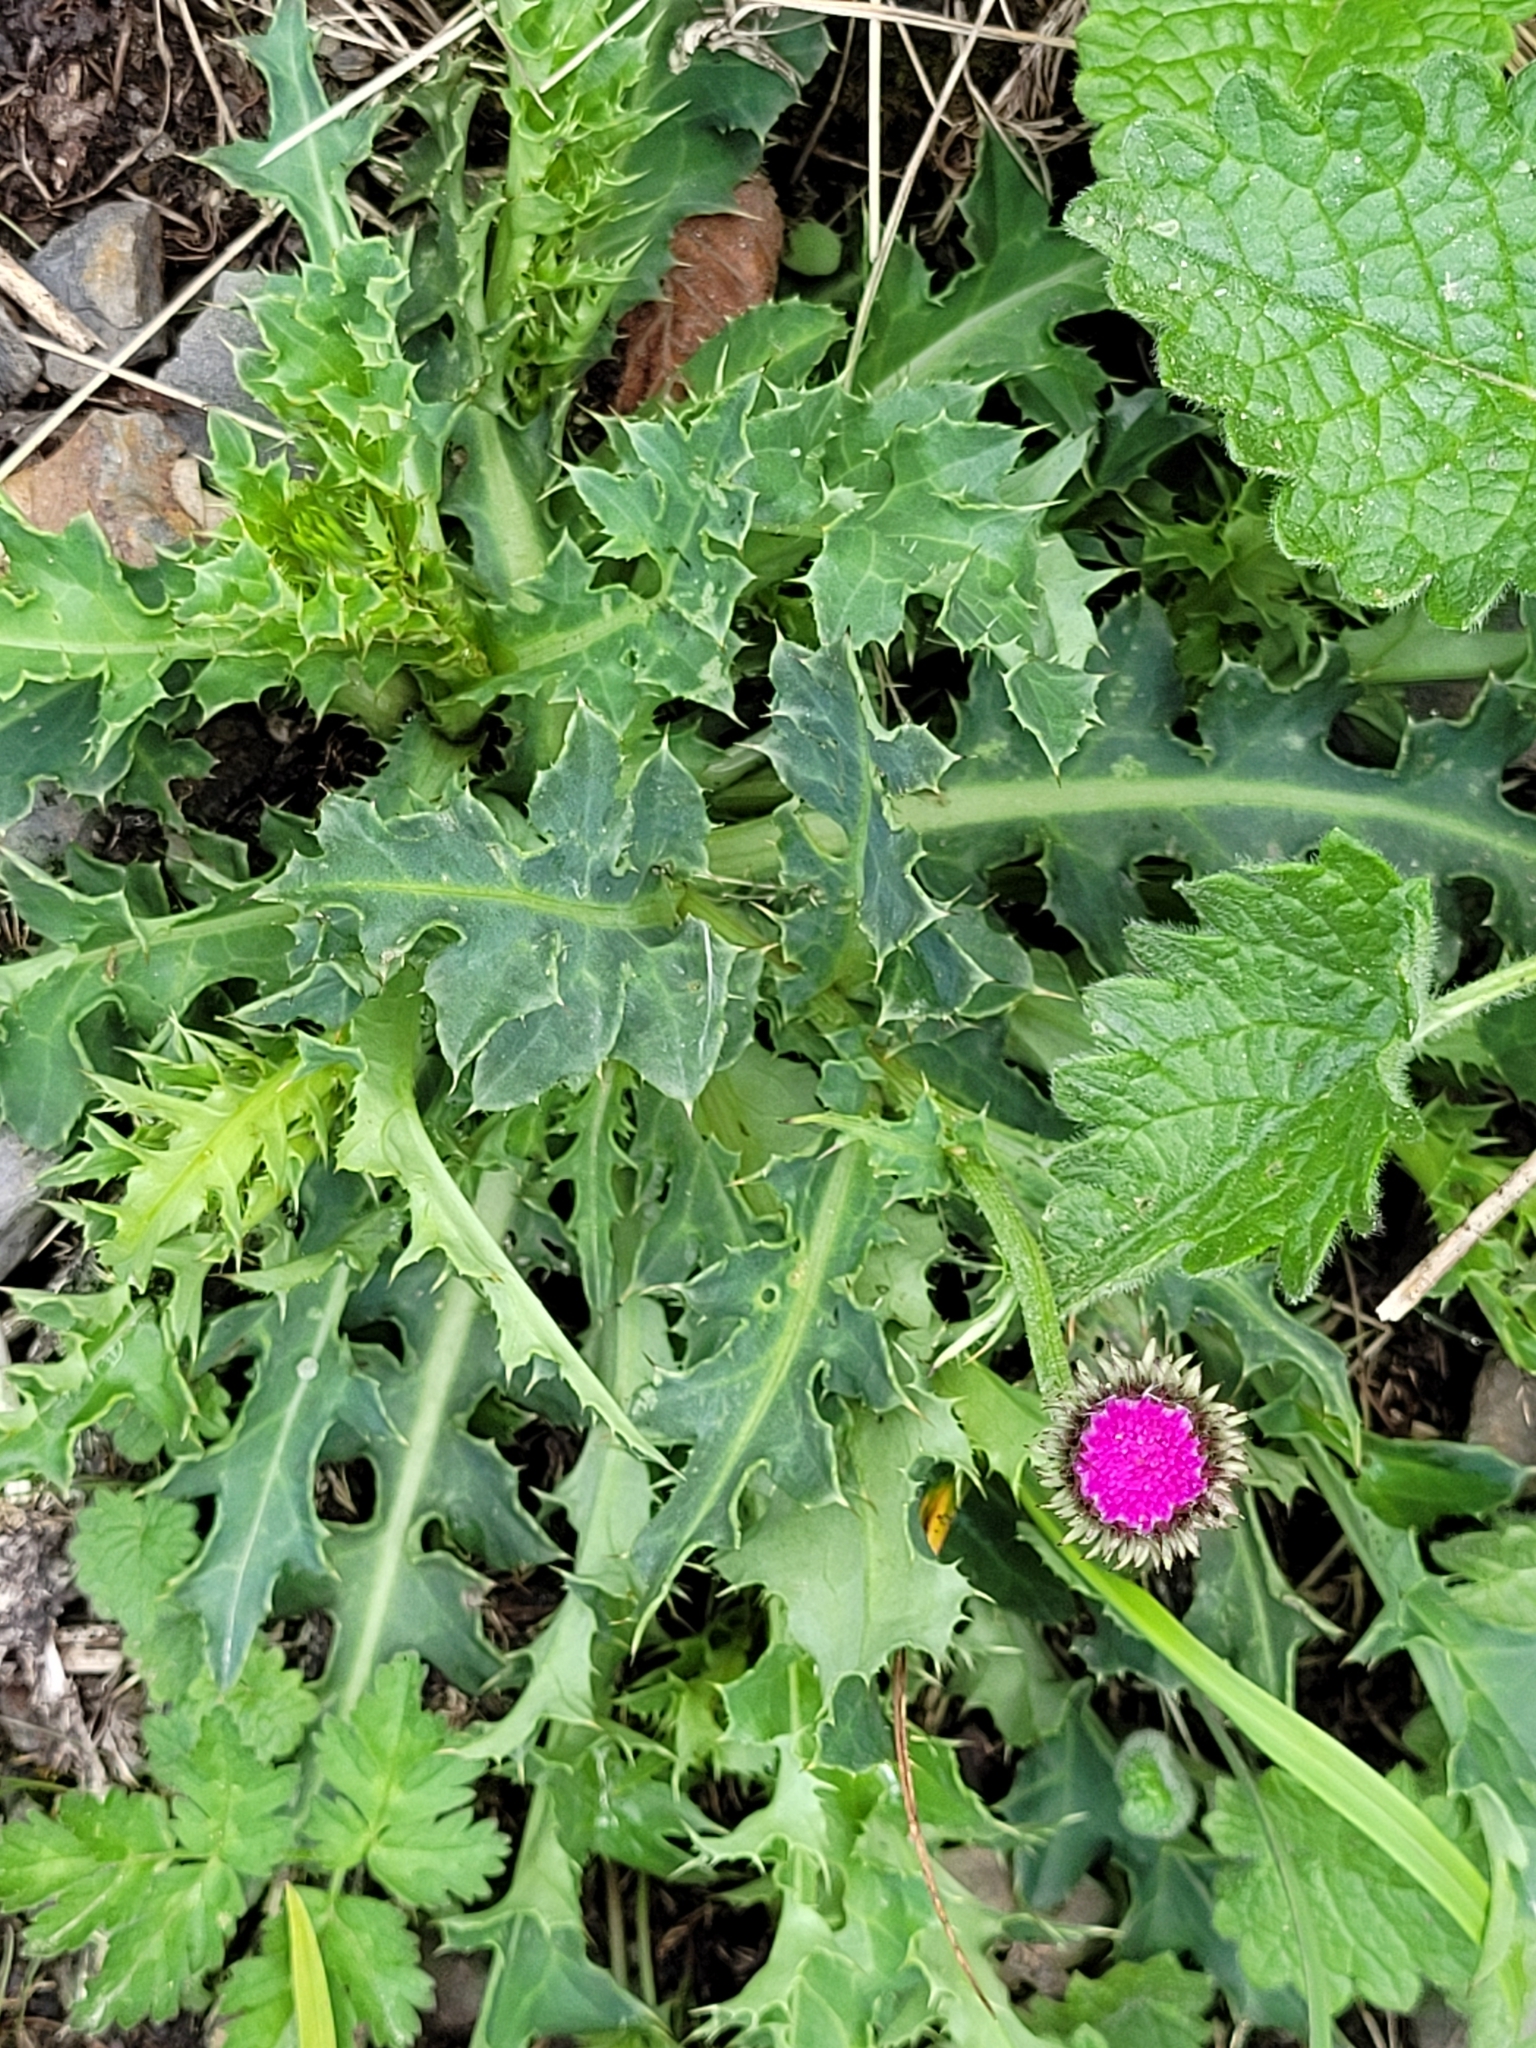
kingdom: Plantae
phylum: Tracheophyta
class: Magnoliopsida
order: Asterales
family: Asteraceae
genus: Carduus
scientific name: Carduus defloratus
